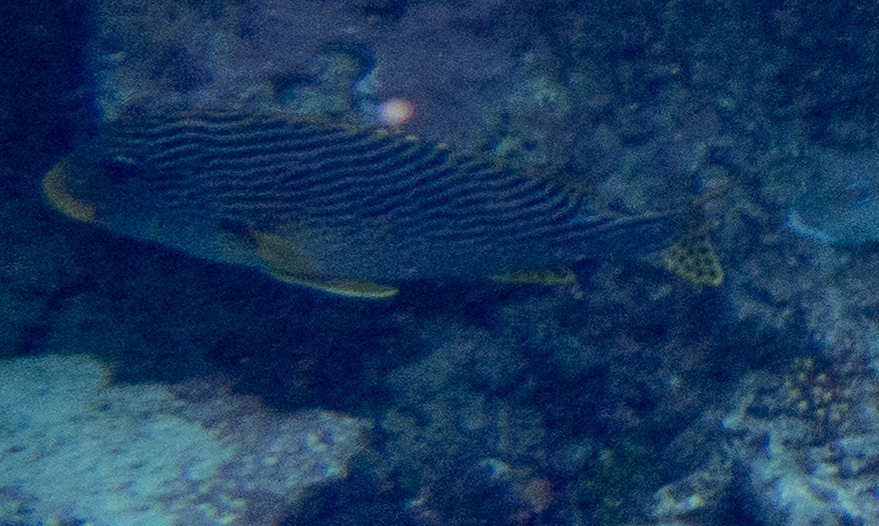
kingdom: Animalia
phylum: Chordata
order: Perciformes
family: Haemulidae
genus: Plectorhinchus
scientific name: Plectorhinchus lineatus
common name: Goldman's sweetlips
